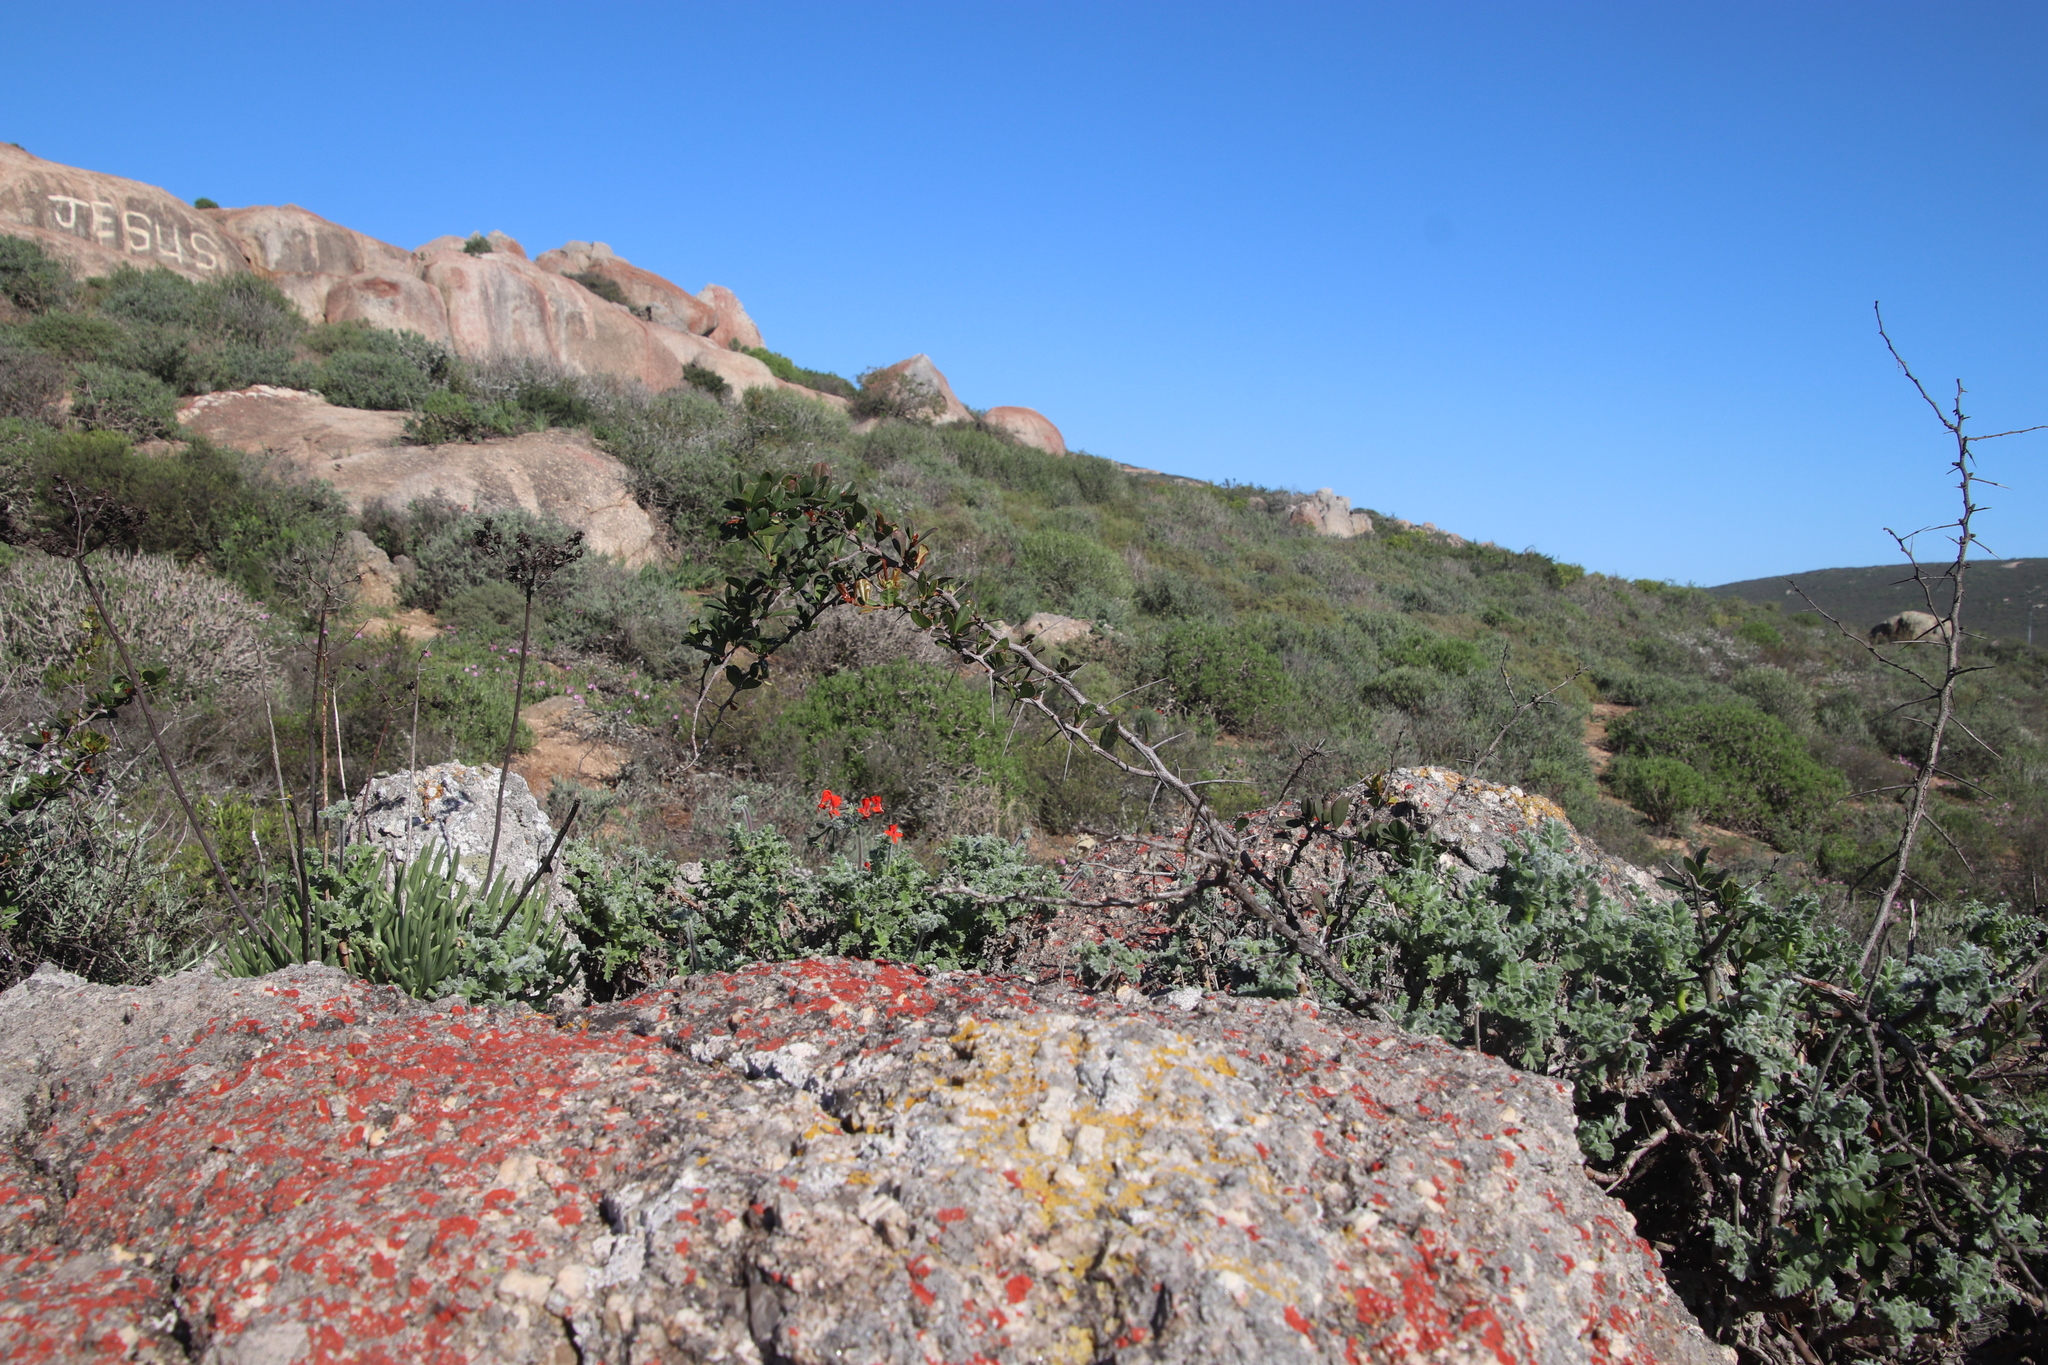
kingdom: Plantae
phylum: Tracheophyta
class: Magnoliopsida
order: Celastrales
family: Celastraceae
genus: Putterlickia
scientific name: Putterlickia pyracantha
